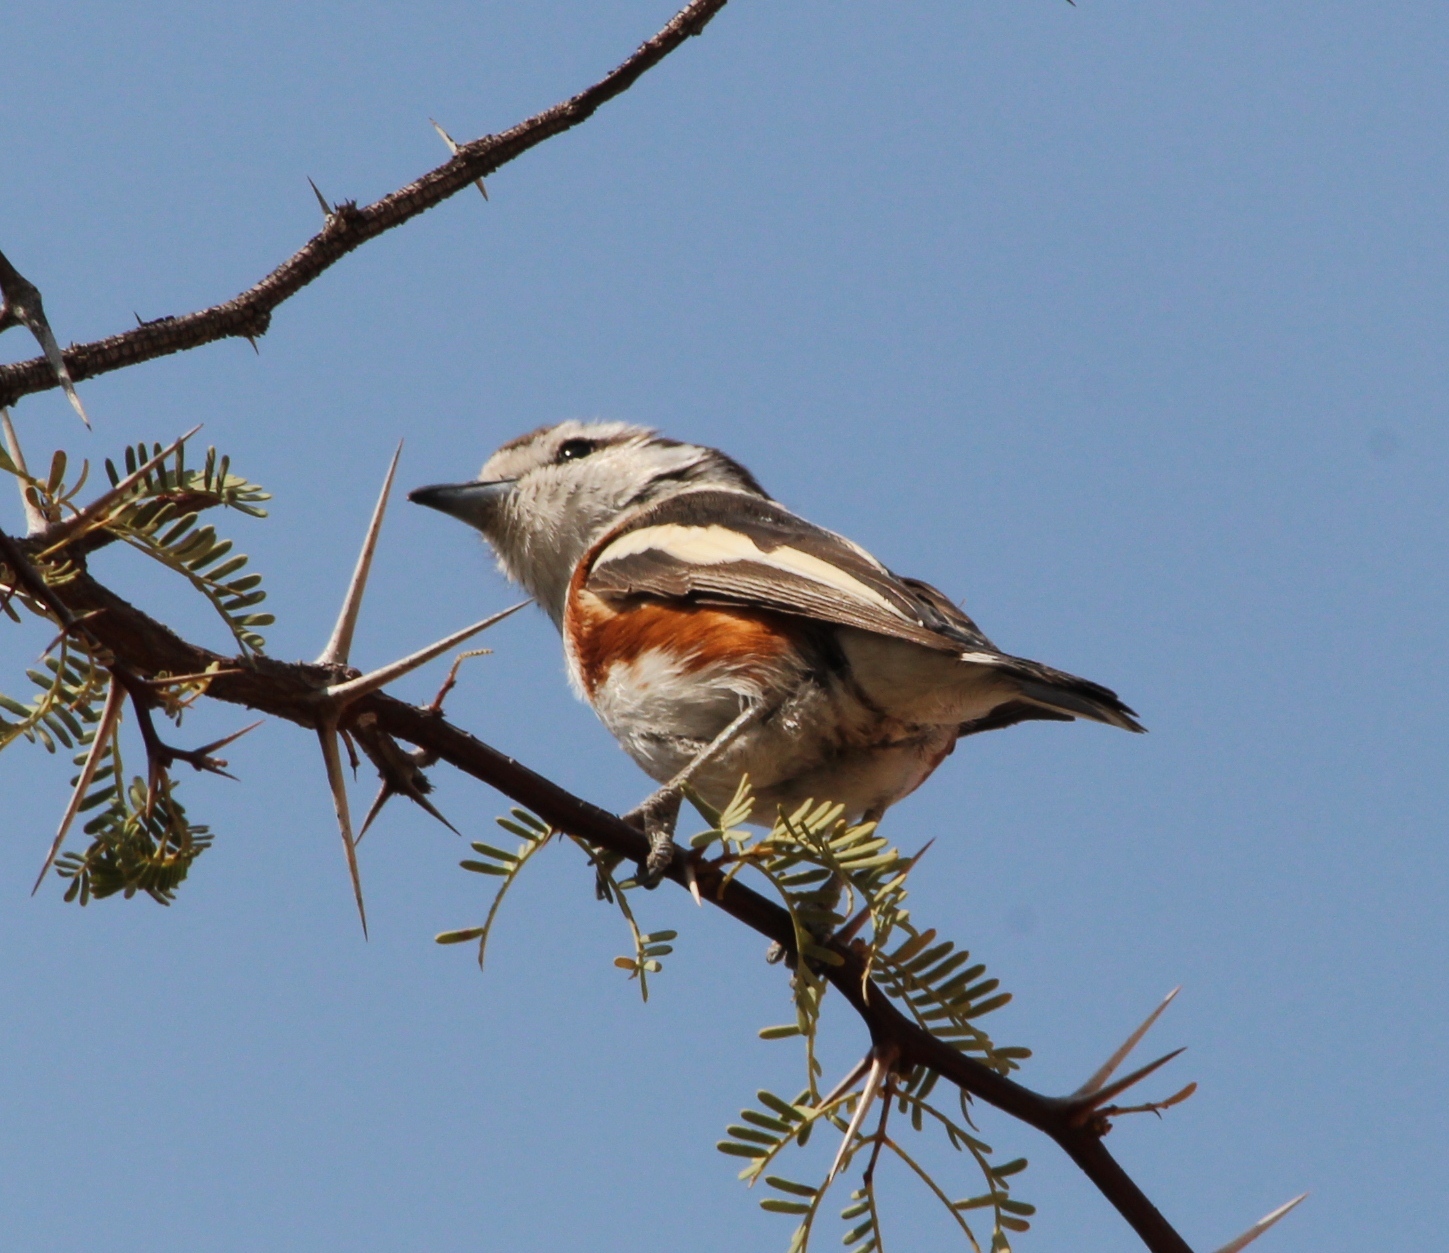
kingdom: Animalia
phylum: Chordata
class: Aves
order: Passeriformes
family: Malaconotidae
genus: Nilaus
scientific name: Nilaus afer
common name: Brubru
